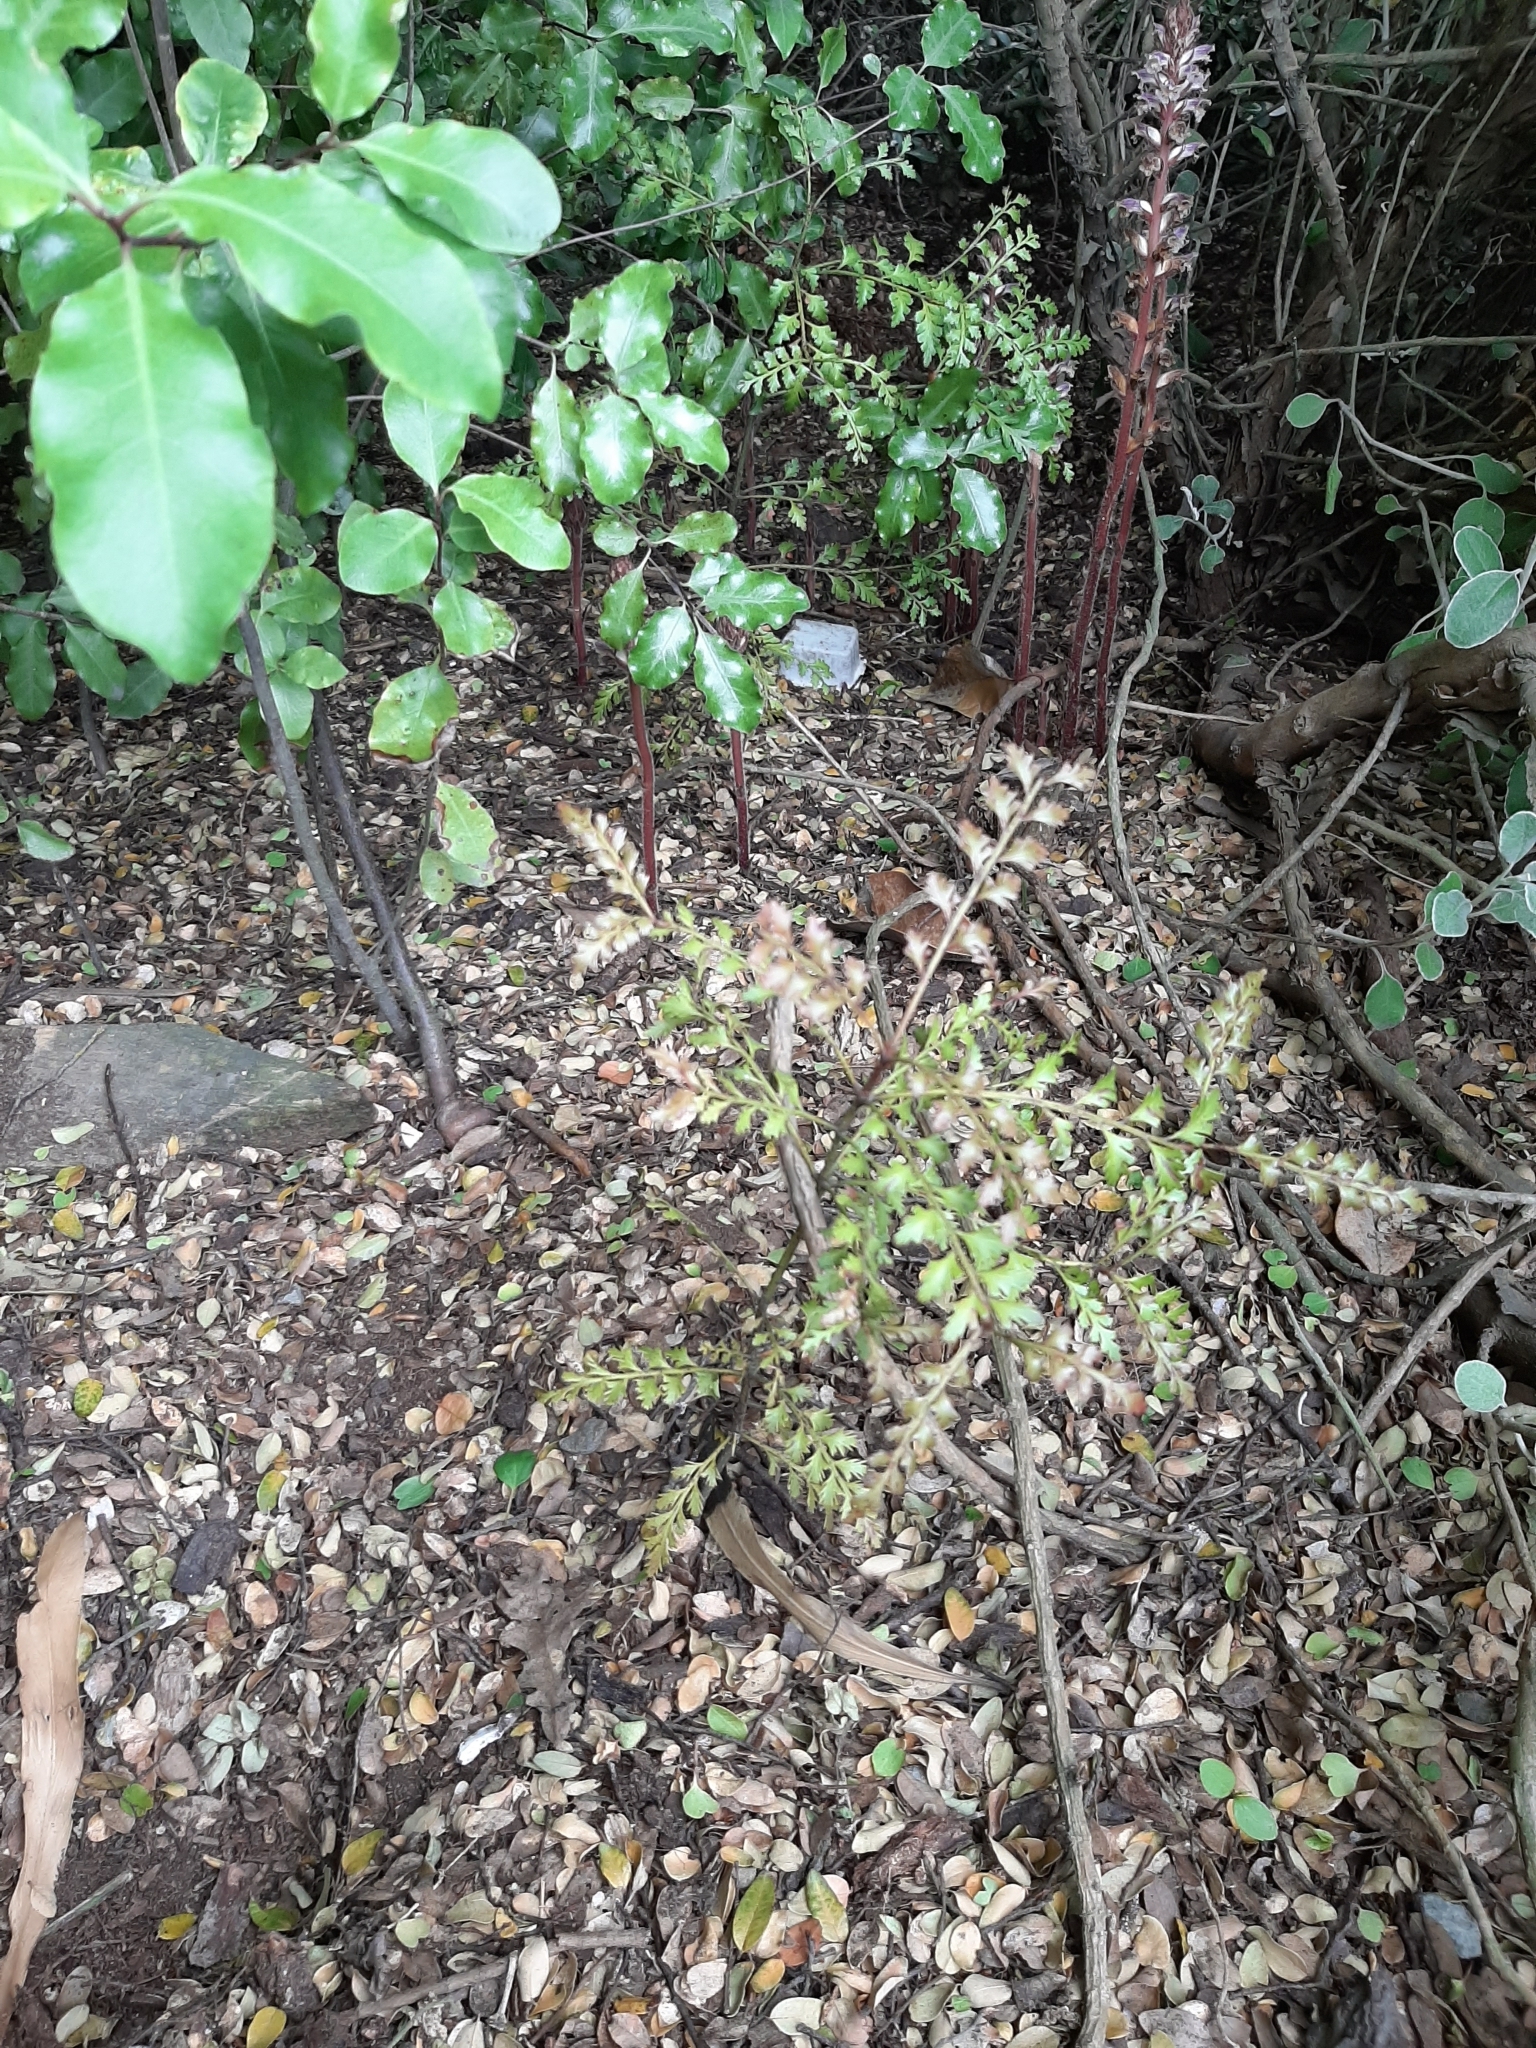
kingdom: Plantae
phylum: Tracheophyta
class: Pinopsida
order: Pinales
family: Phyllocladaceae
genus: Phyllocladus
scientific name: Phyllocladus trichomanoides
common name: Celery pine
